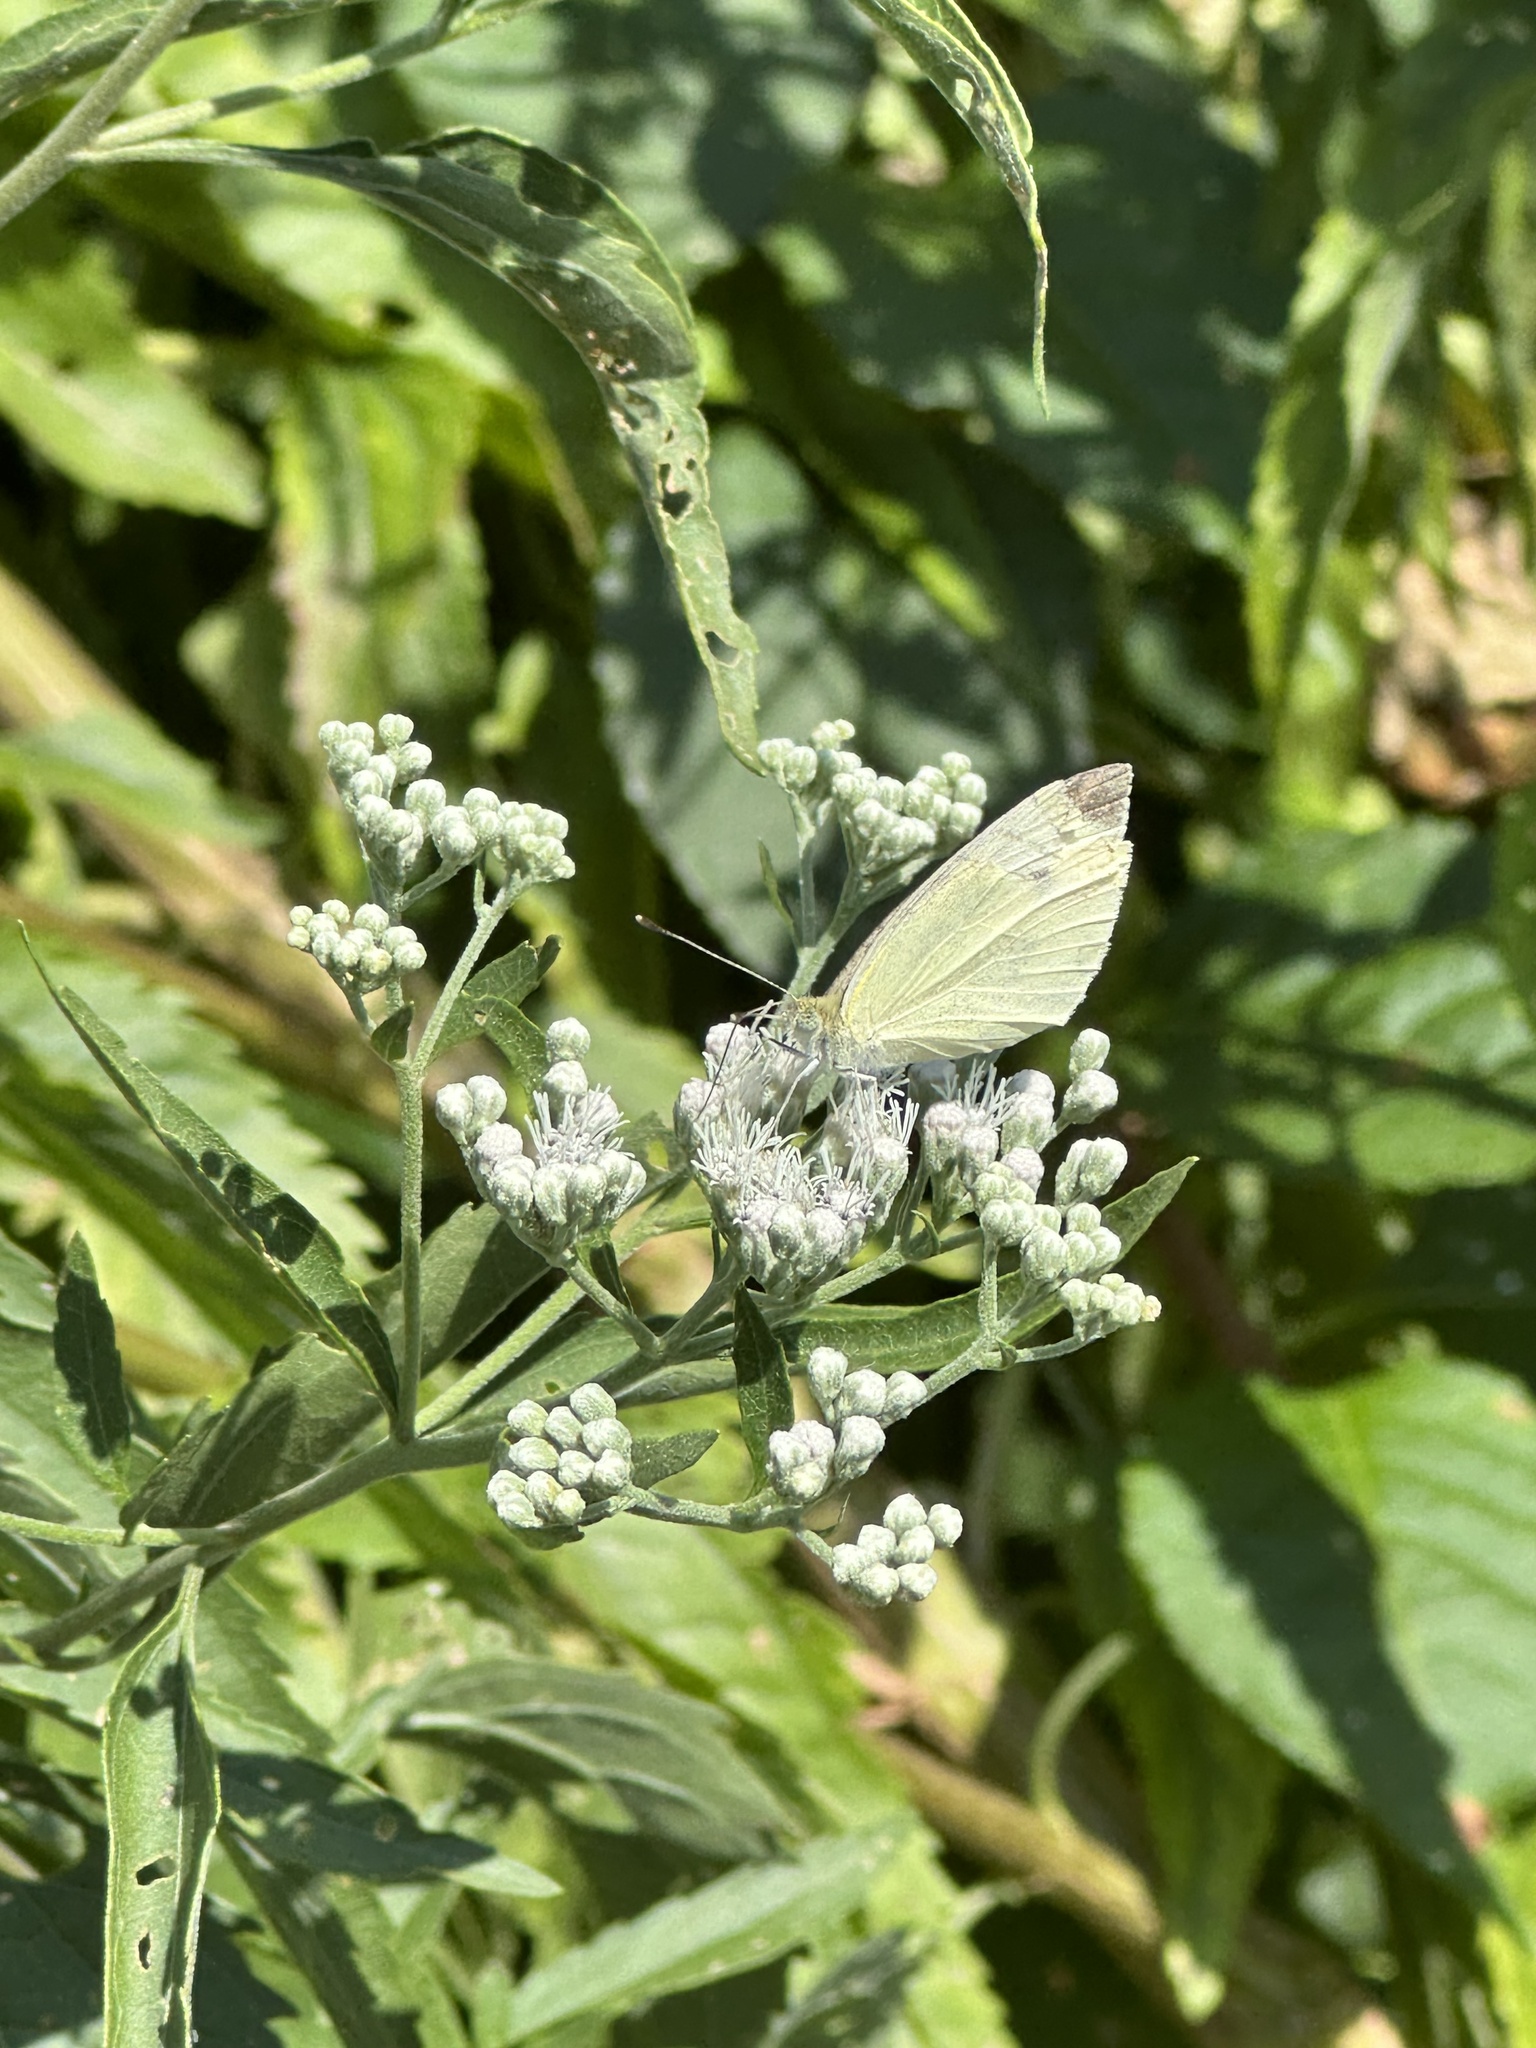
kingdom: Animalia
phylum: Arthropoda
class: Insecta
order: Lepidoptera
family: Pieridae
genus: Pieris
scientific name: Pieris rapae
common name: Small white
